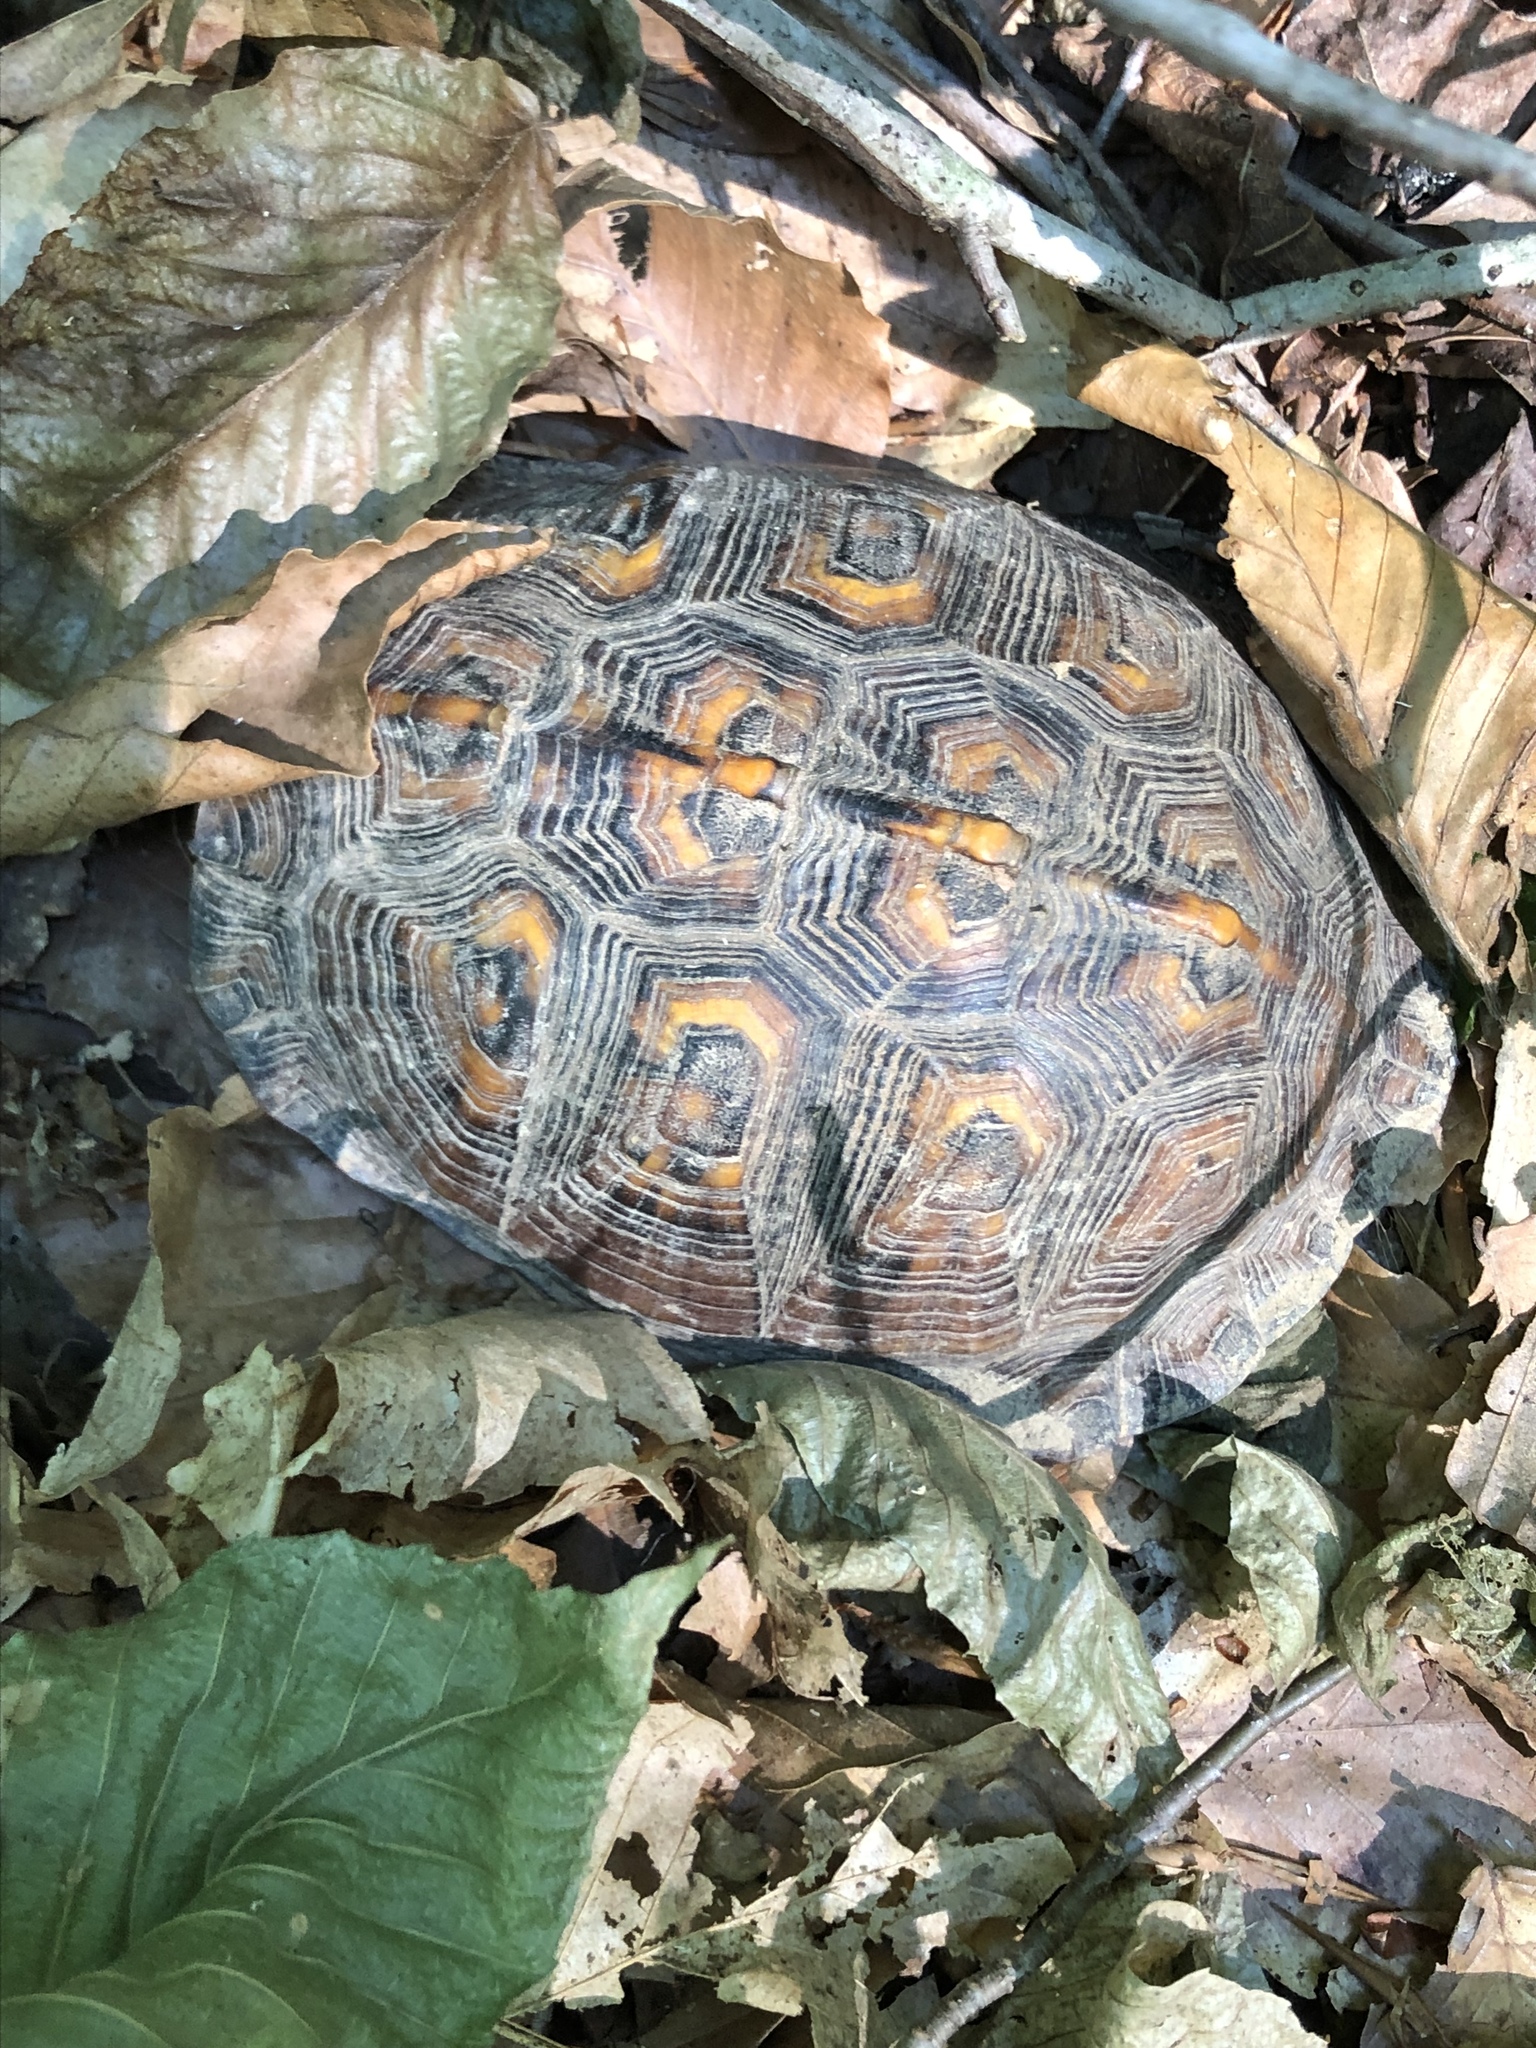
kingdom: Animalia
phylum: Chordata
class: Testudines
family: Emydidae
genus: Terrapene
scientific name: Terrapene carolina
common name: Common box turtle
